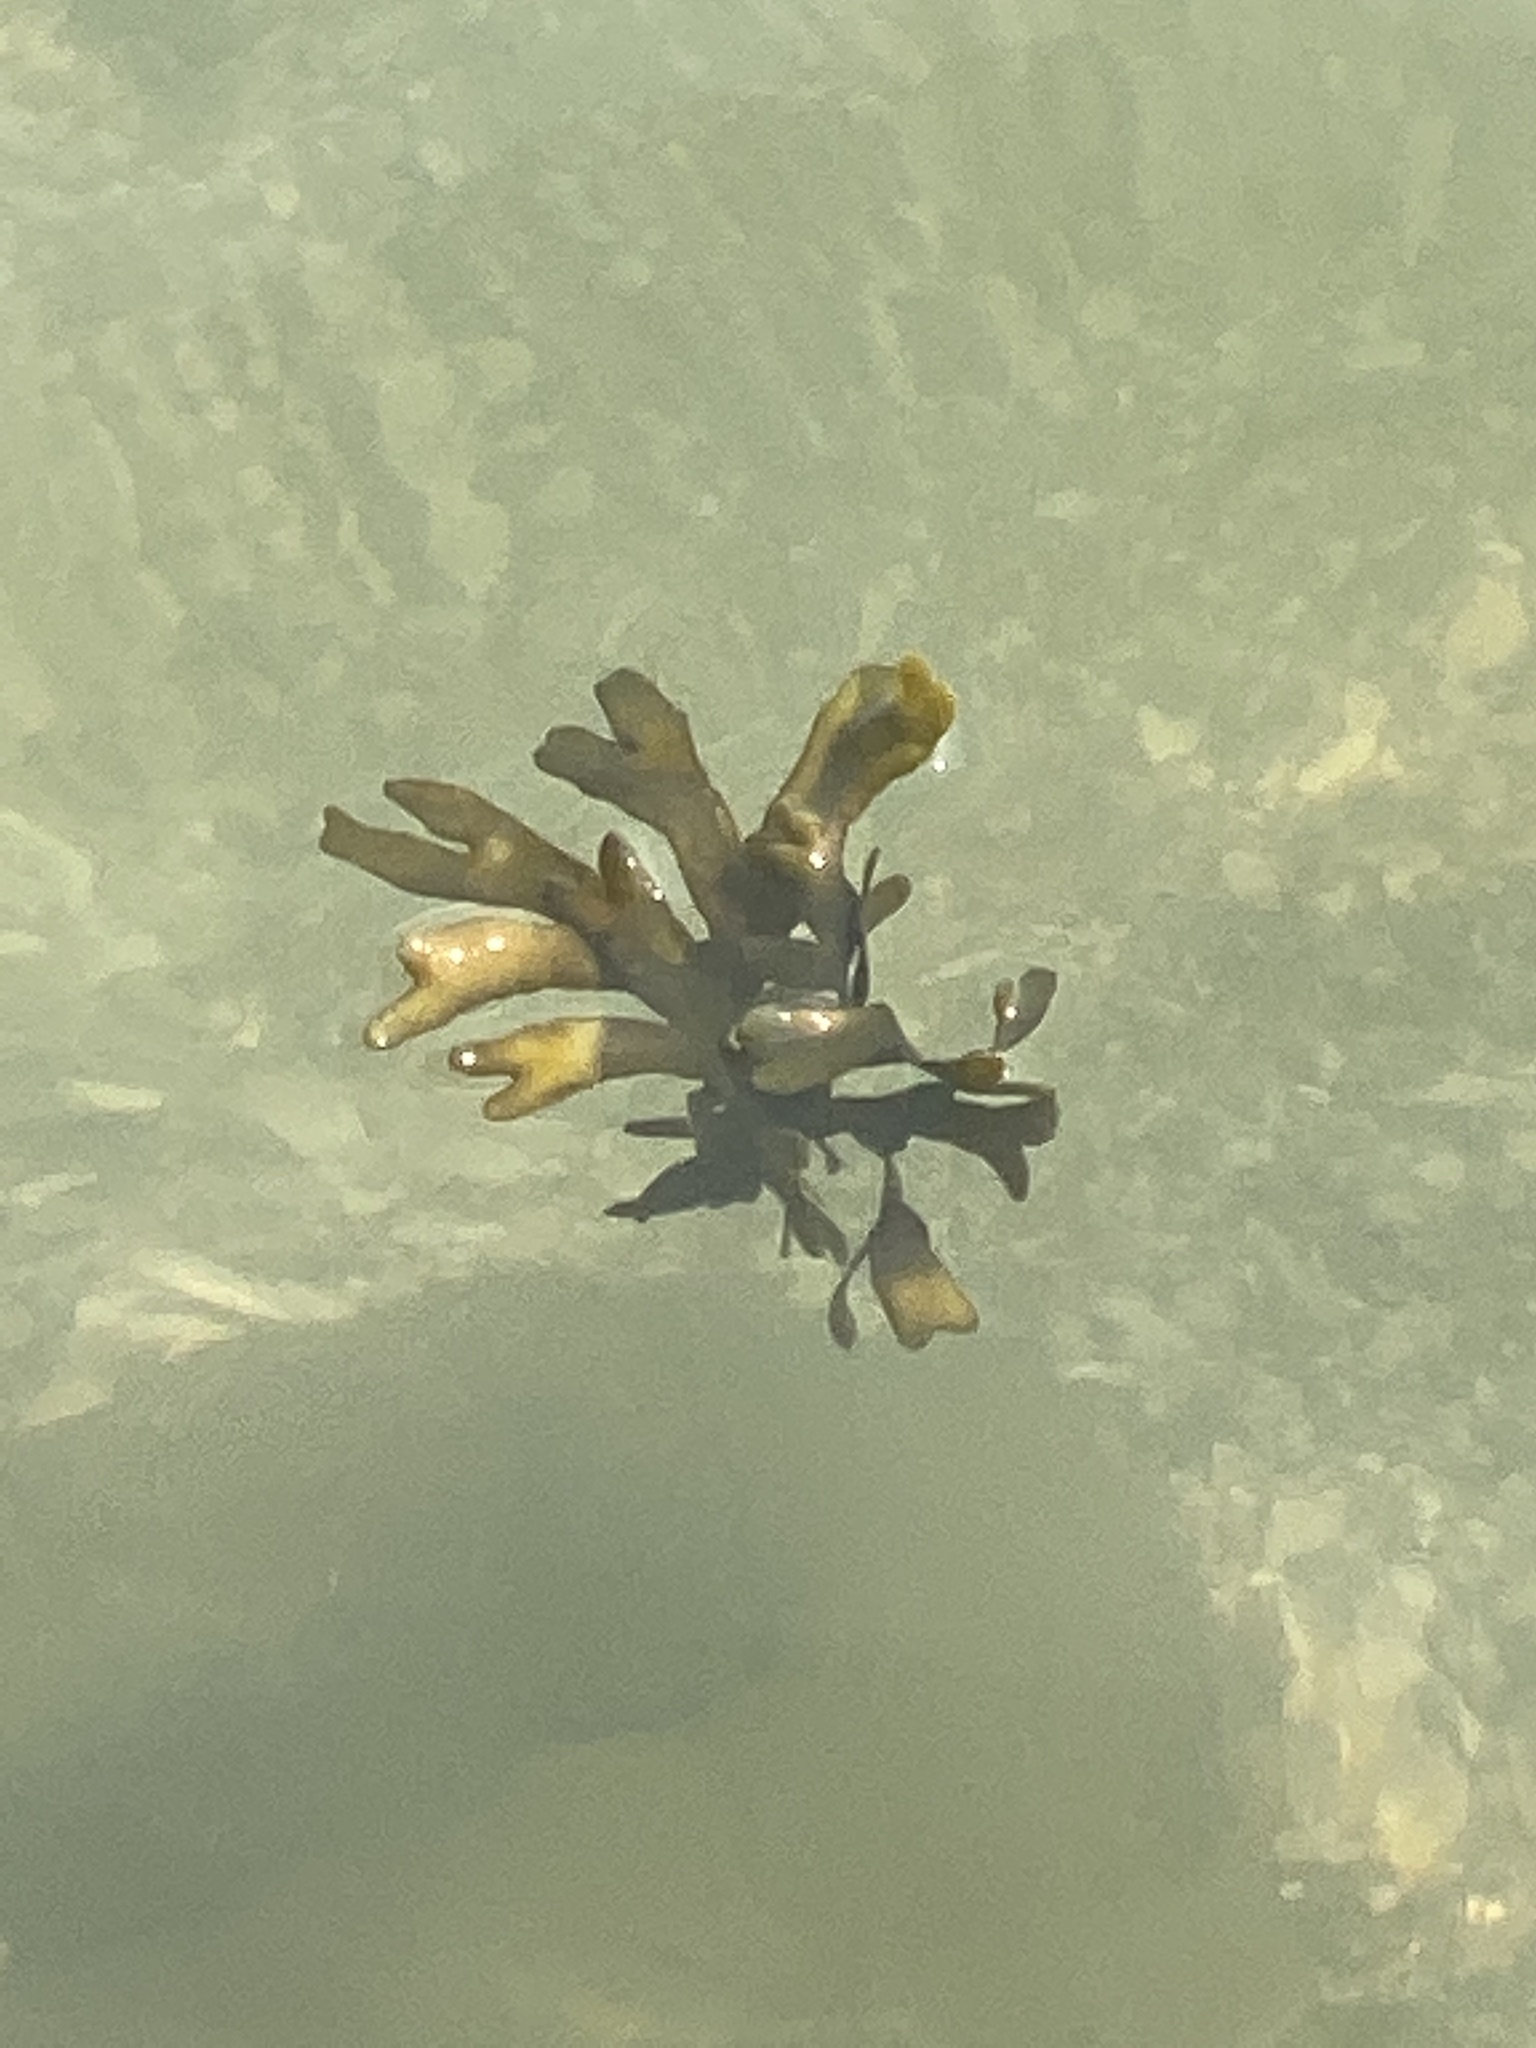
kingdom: Chromista
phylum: Ochrophyta
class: Phaeophyceae
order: Fucales
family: Fucaceae
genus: Fucus
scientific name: Fucus distichus
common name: Rockweed
